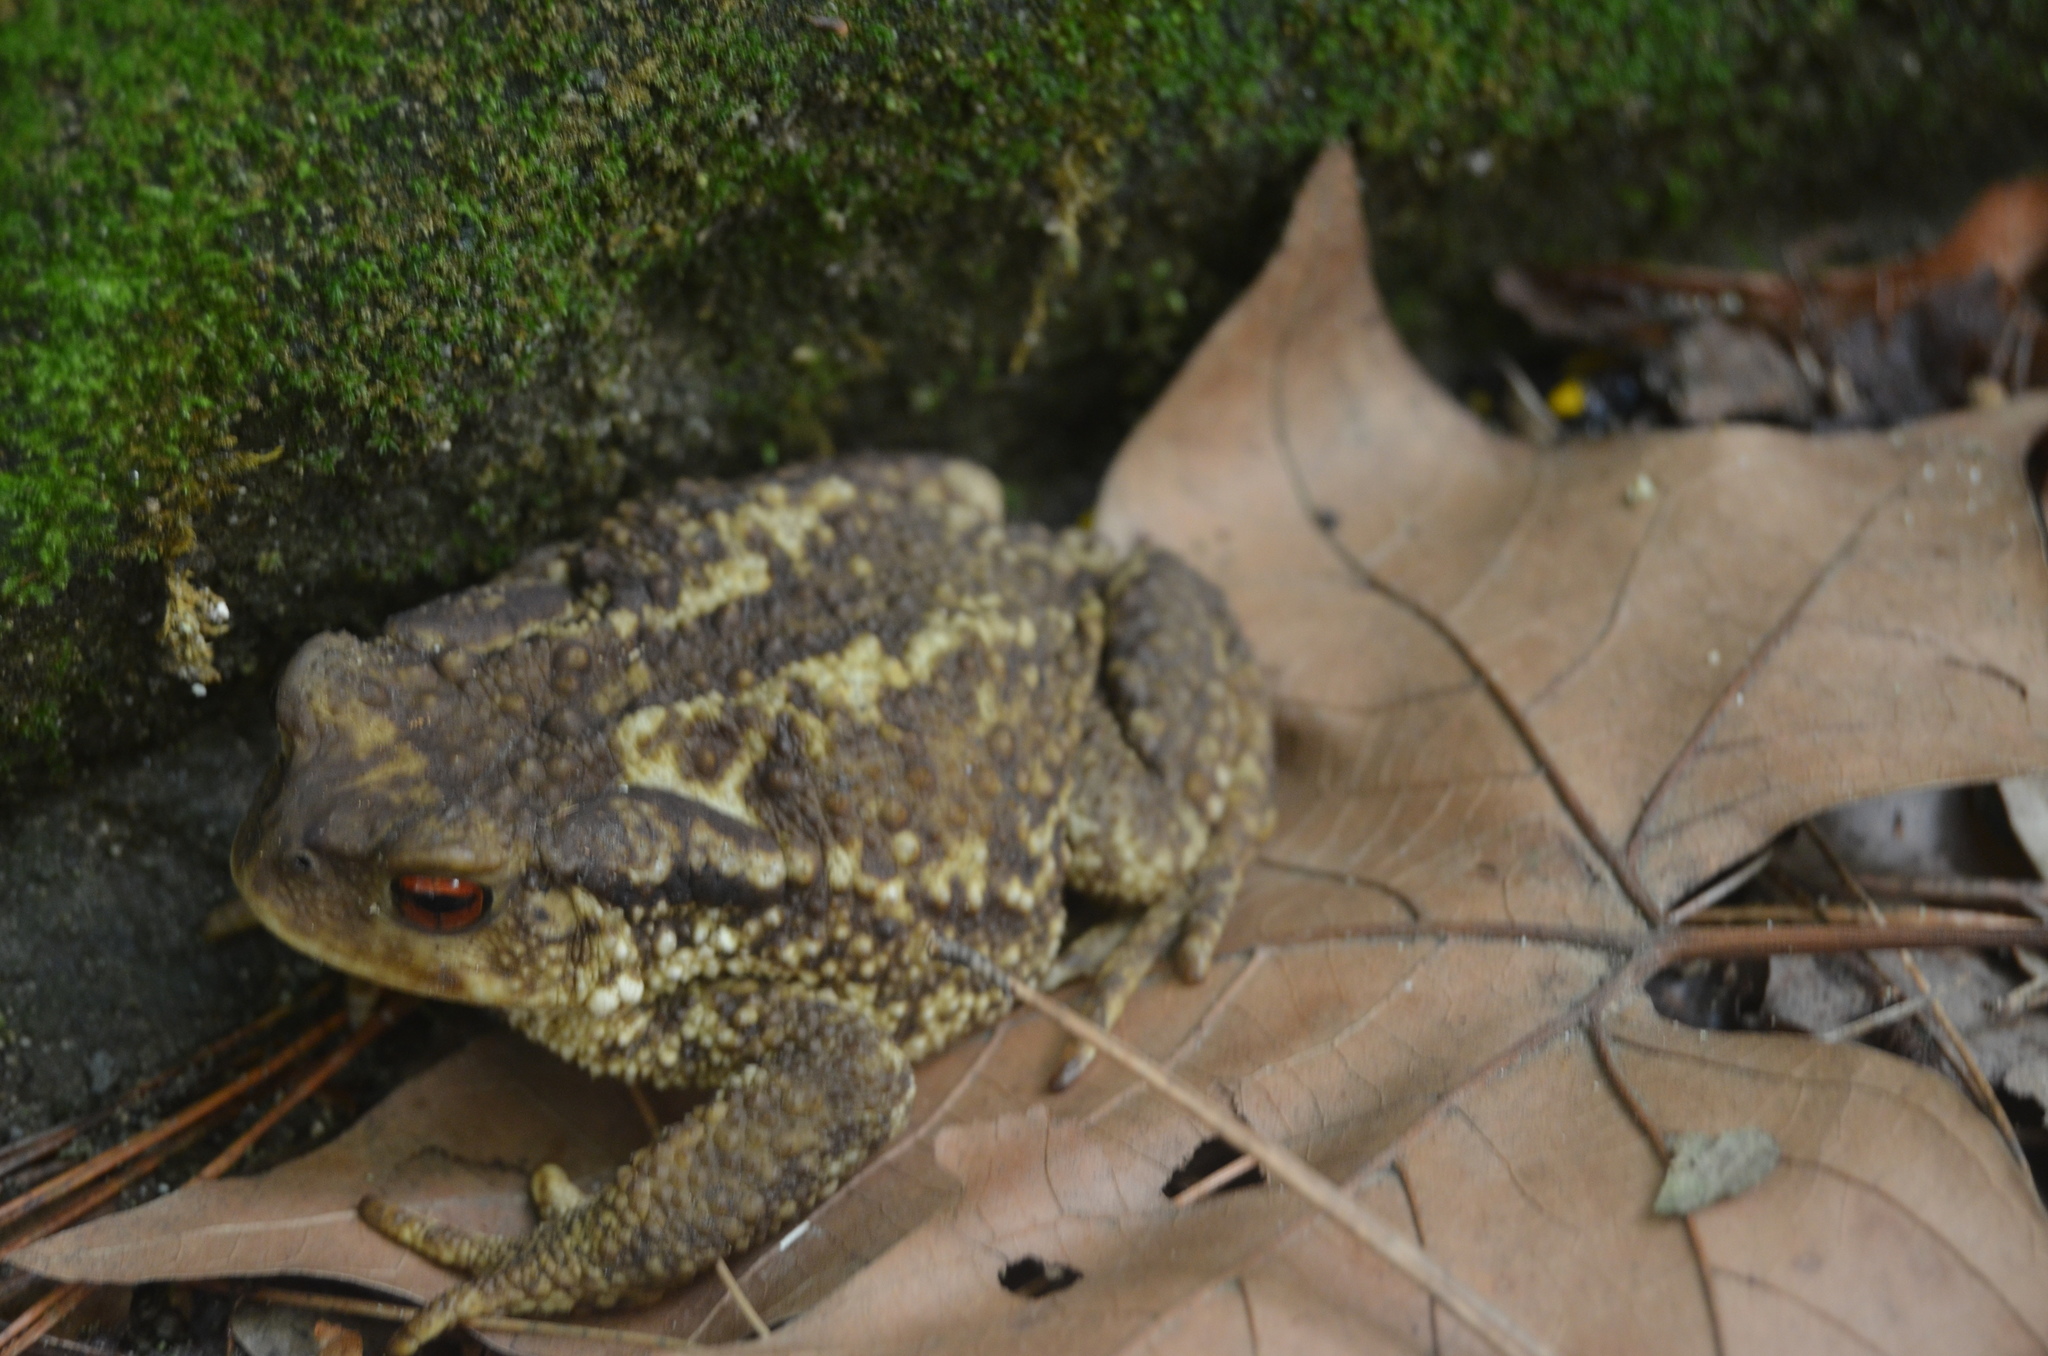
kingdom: Animalia
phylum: Chordata
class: Amphibia
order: Anura
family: Bufonidae
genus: Bufo
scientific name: Bufo spinosus
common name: Western common toad
